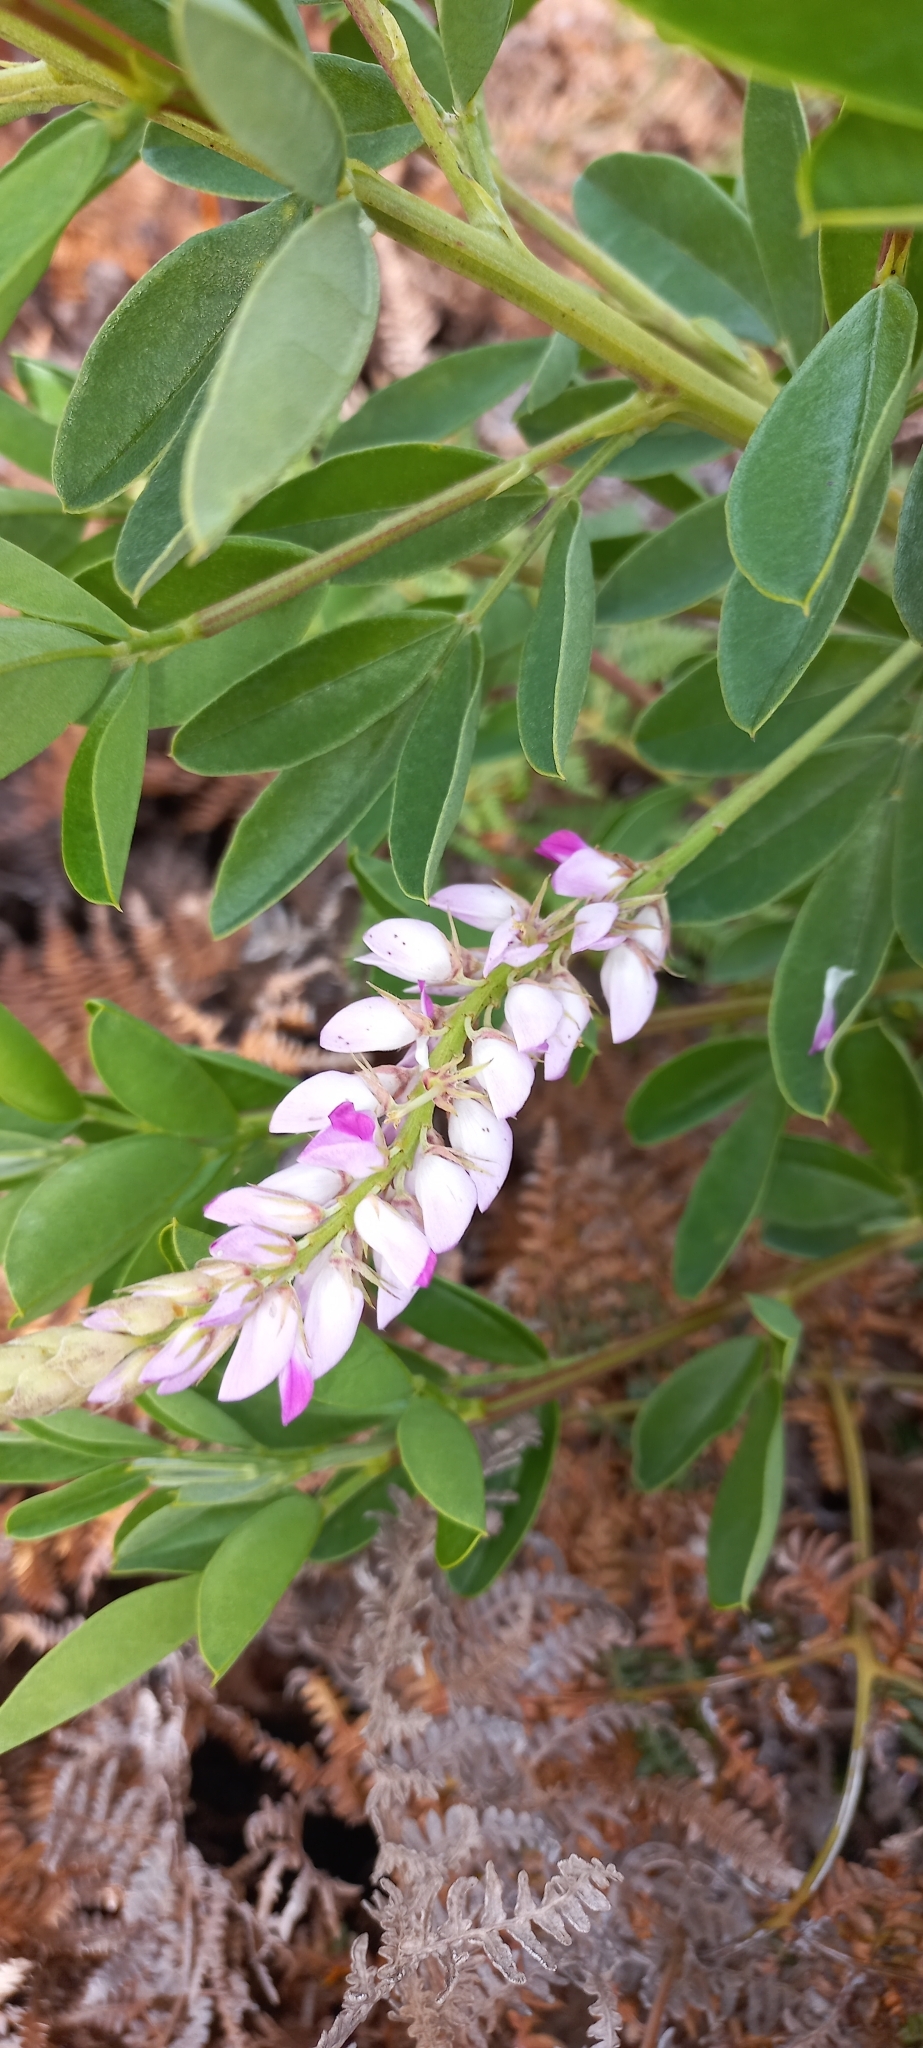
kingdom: Plantae
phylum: Tracheophyta
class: Magnoliopsida
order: Fabales
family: Fabaceae
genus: Indigofera
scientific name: Indigofera cytisoides
